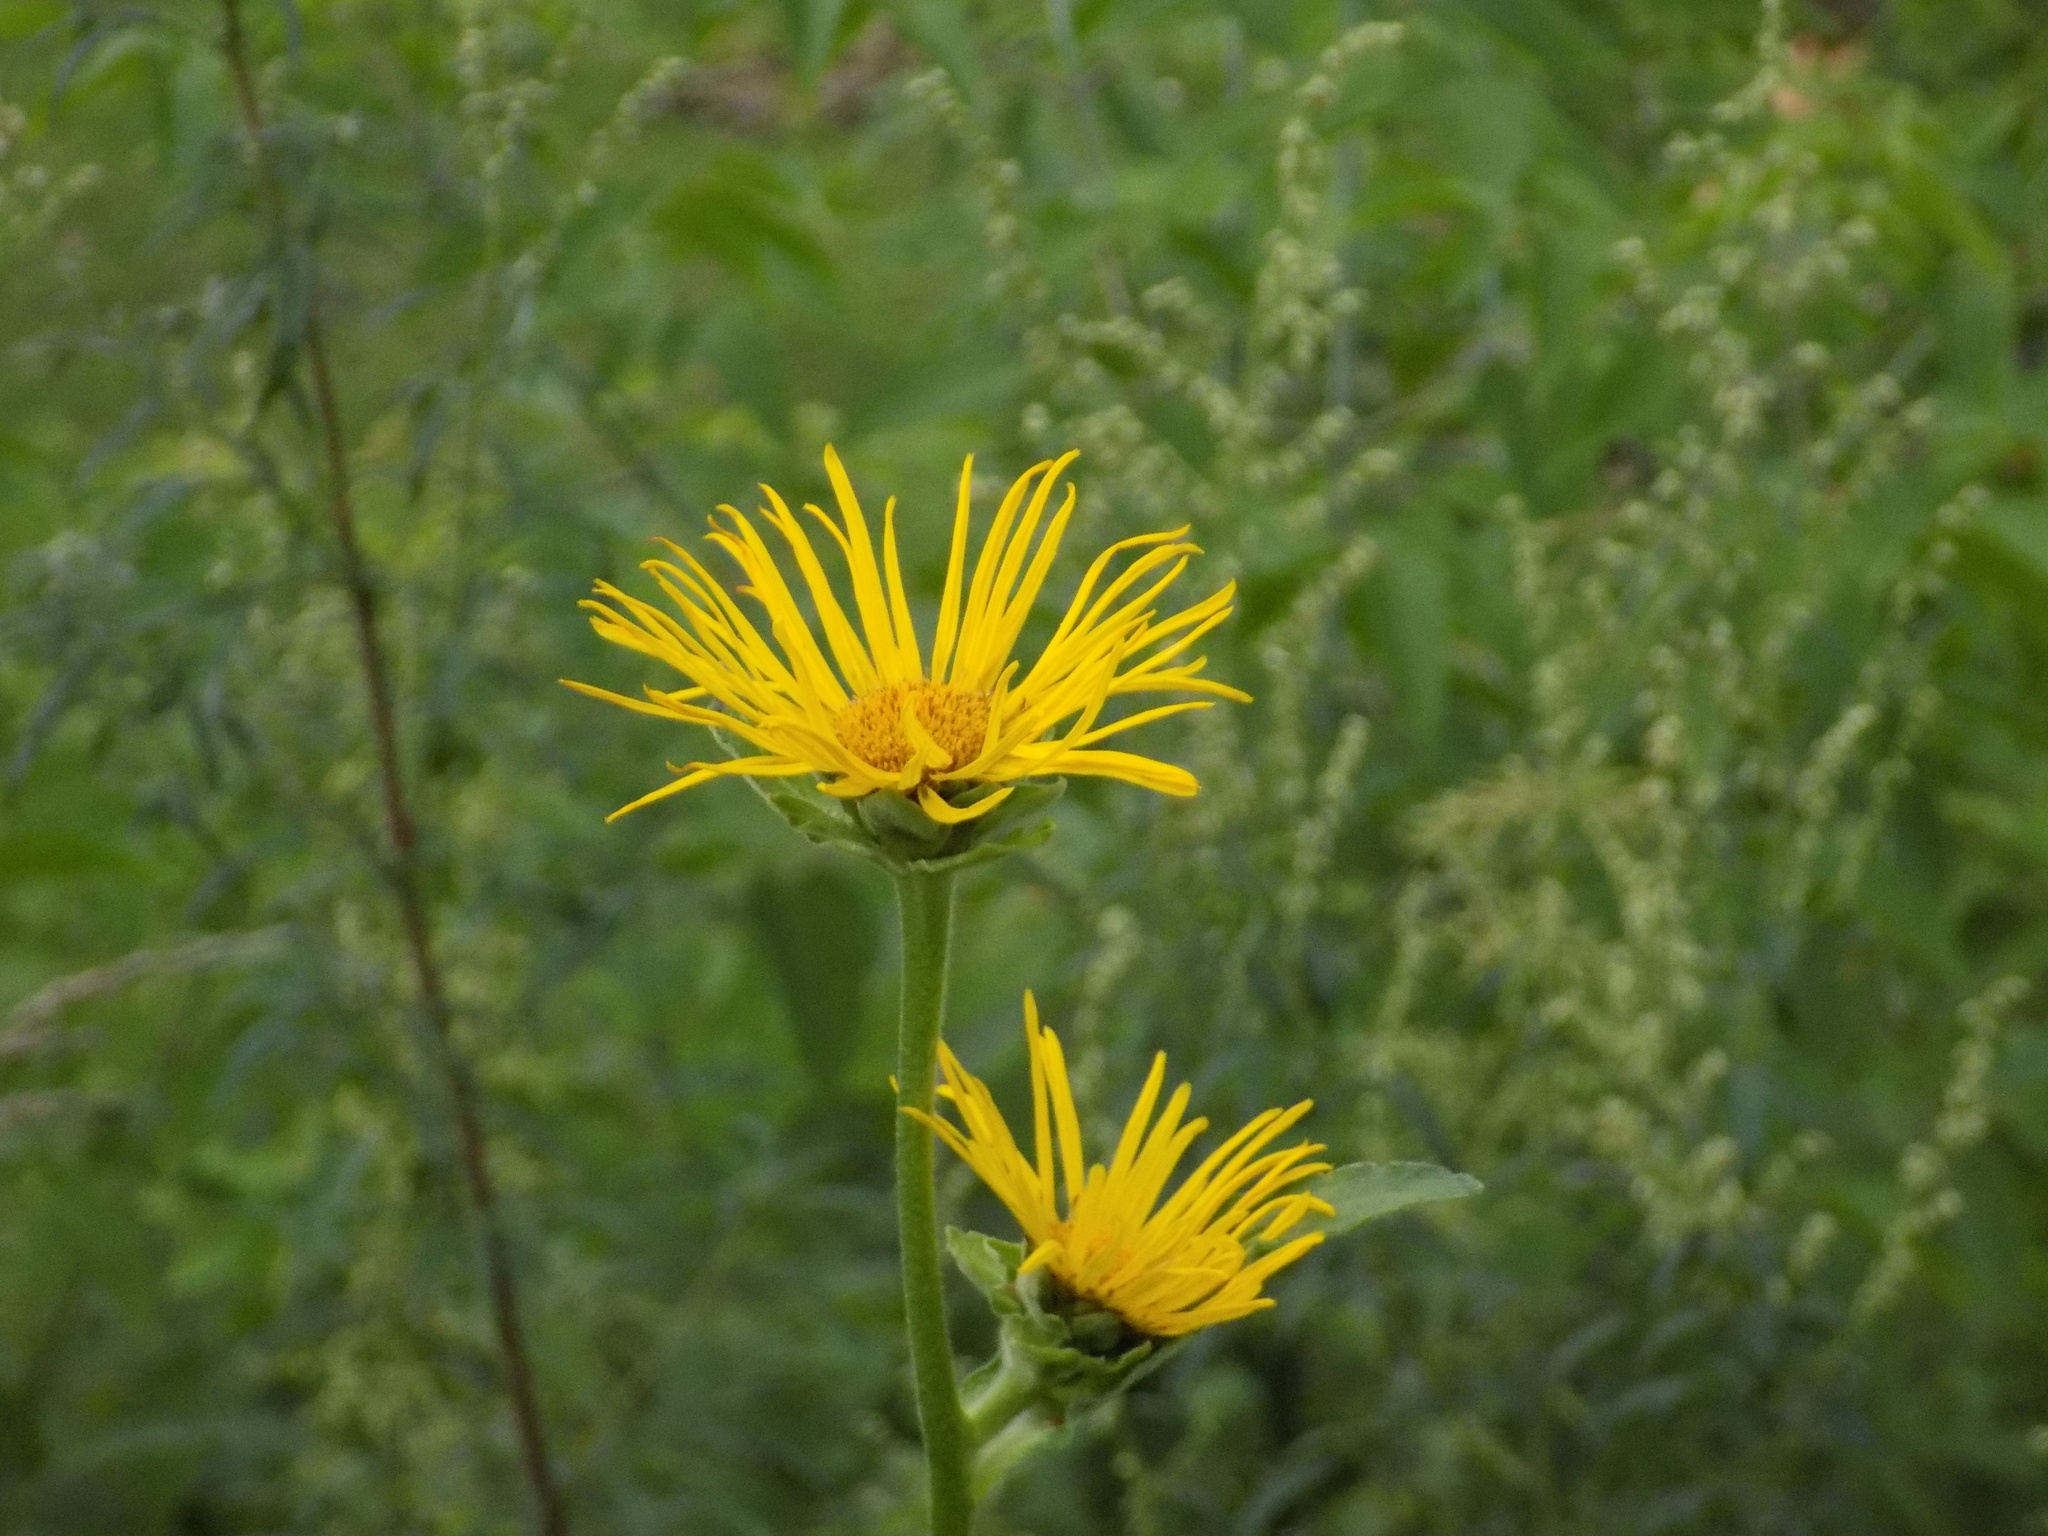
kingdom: Plantae
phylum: Tracheophyta
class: Magnoliopsida
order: Asterales
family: Asteraceae
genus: Inula
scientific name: Inula helenium
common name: Elecampane
